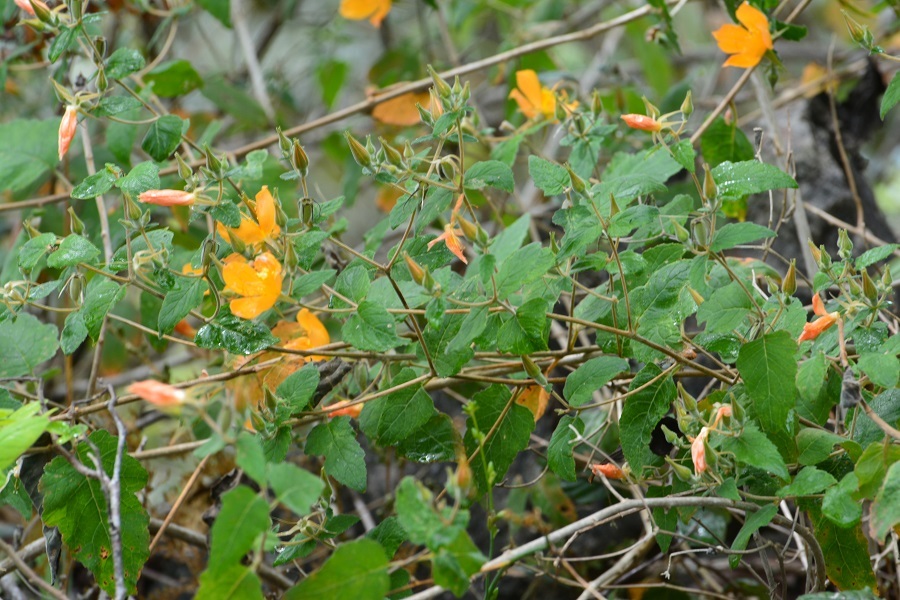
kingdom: Plantae
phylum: Tracheophyta
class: Magnoliopsida
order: Cornales
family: Loasaceae
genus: Mentzelia
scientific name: Mentzelia hispida
